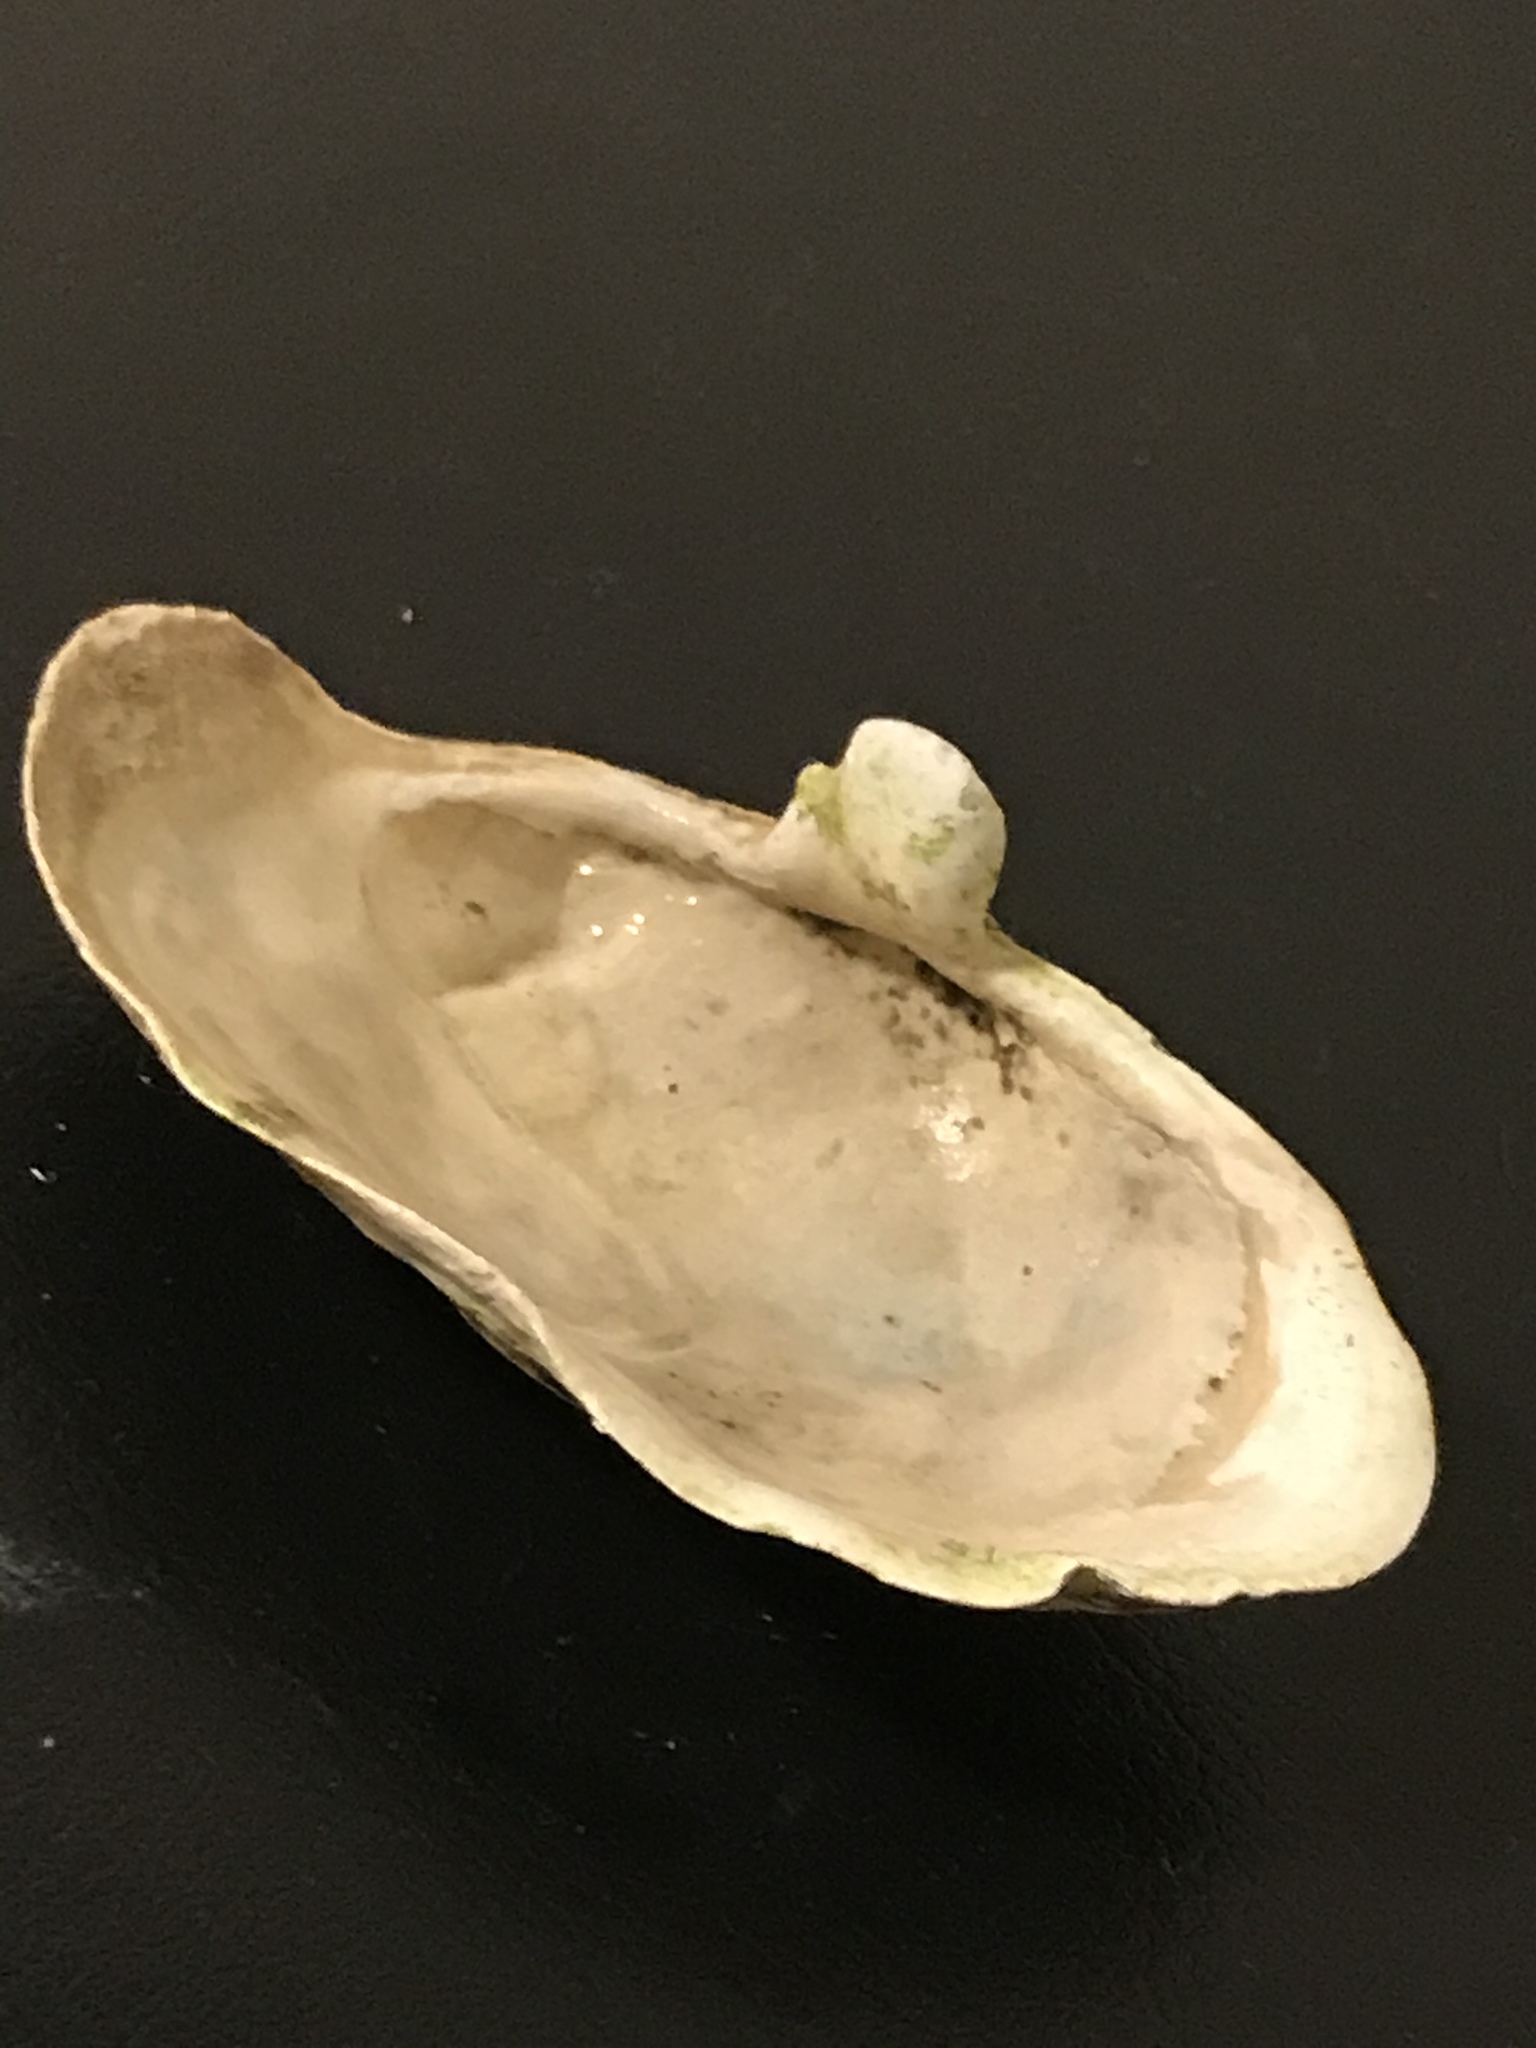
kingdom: Animalia
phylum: Mollusca
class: Bivalvia
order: Myida
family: Myidae
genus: Mya
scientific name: Mya arenaria
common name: Soft-shelled clam
